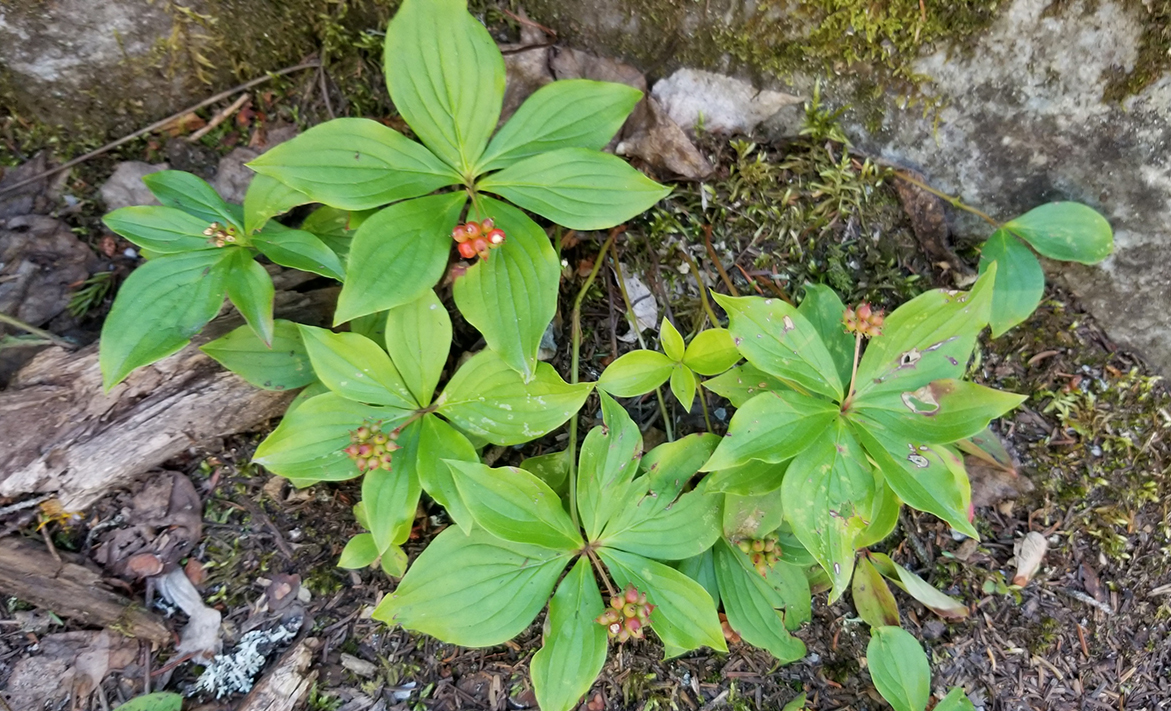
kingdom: Plantae
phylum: Tracheophyta
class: Magnoliopsida
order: Cornales
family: Cornaceae
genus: Cornus
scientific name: Cornus canadensis
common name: Creeping dogwood
